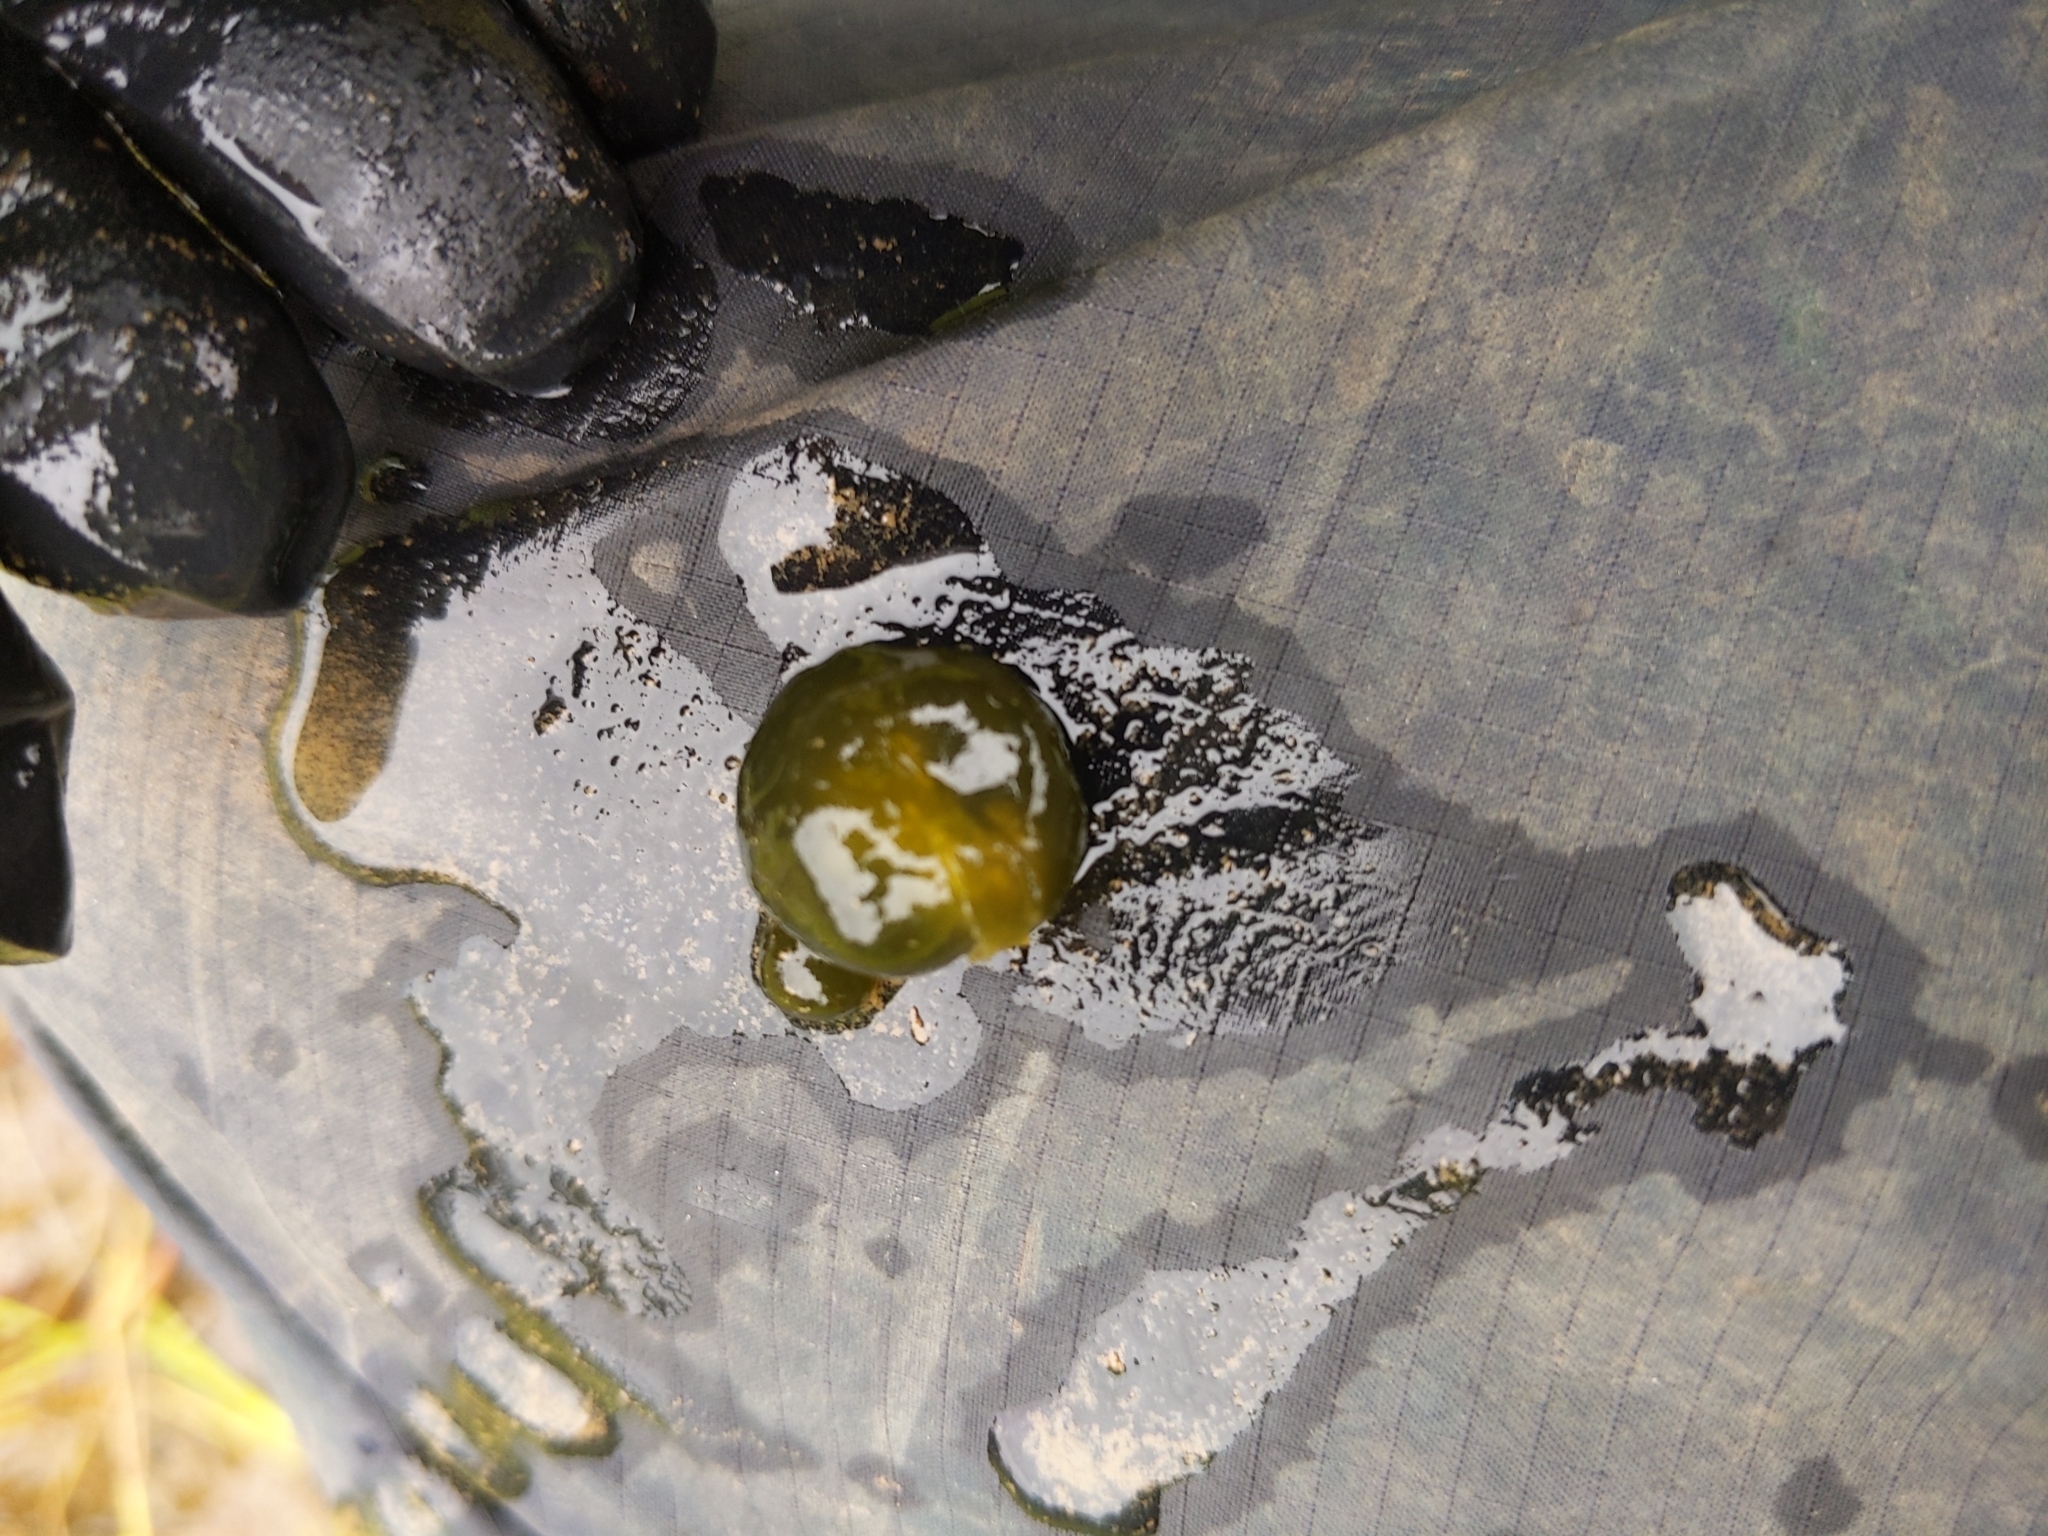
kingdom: Bacteria
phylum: Cyanobacteria
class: Cyanobacteriia
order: Cyanobacteriales
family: Nostocaceae
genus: Nostoc
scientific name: Nostoc pruniforme
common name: Mare's eggs
